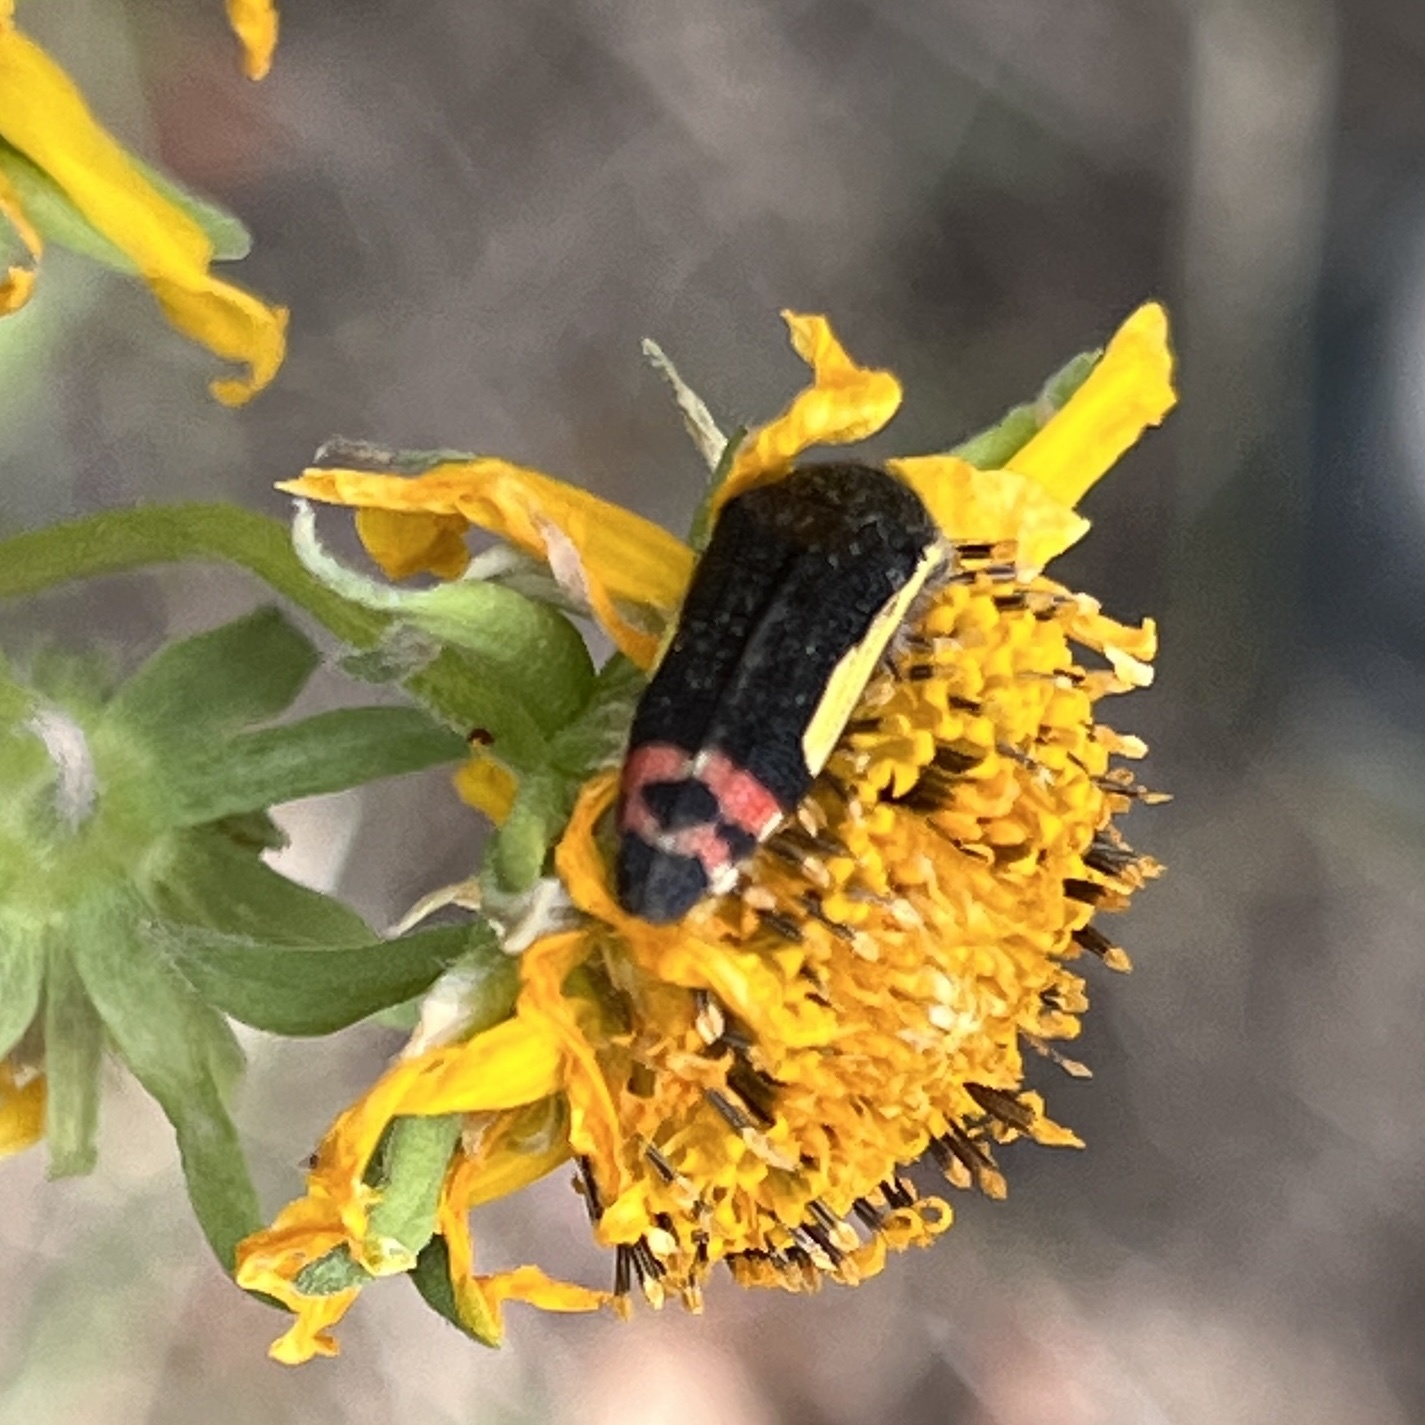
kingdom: Animalia
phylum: Arthropoda
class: Insecta
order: Coleoptera
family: Buprestidae
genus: Acmaeodera
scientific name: Acmaeodera flavomarginata
